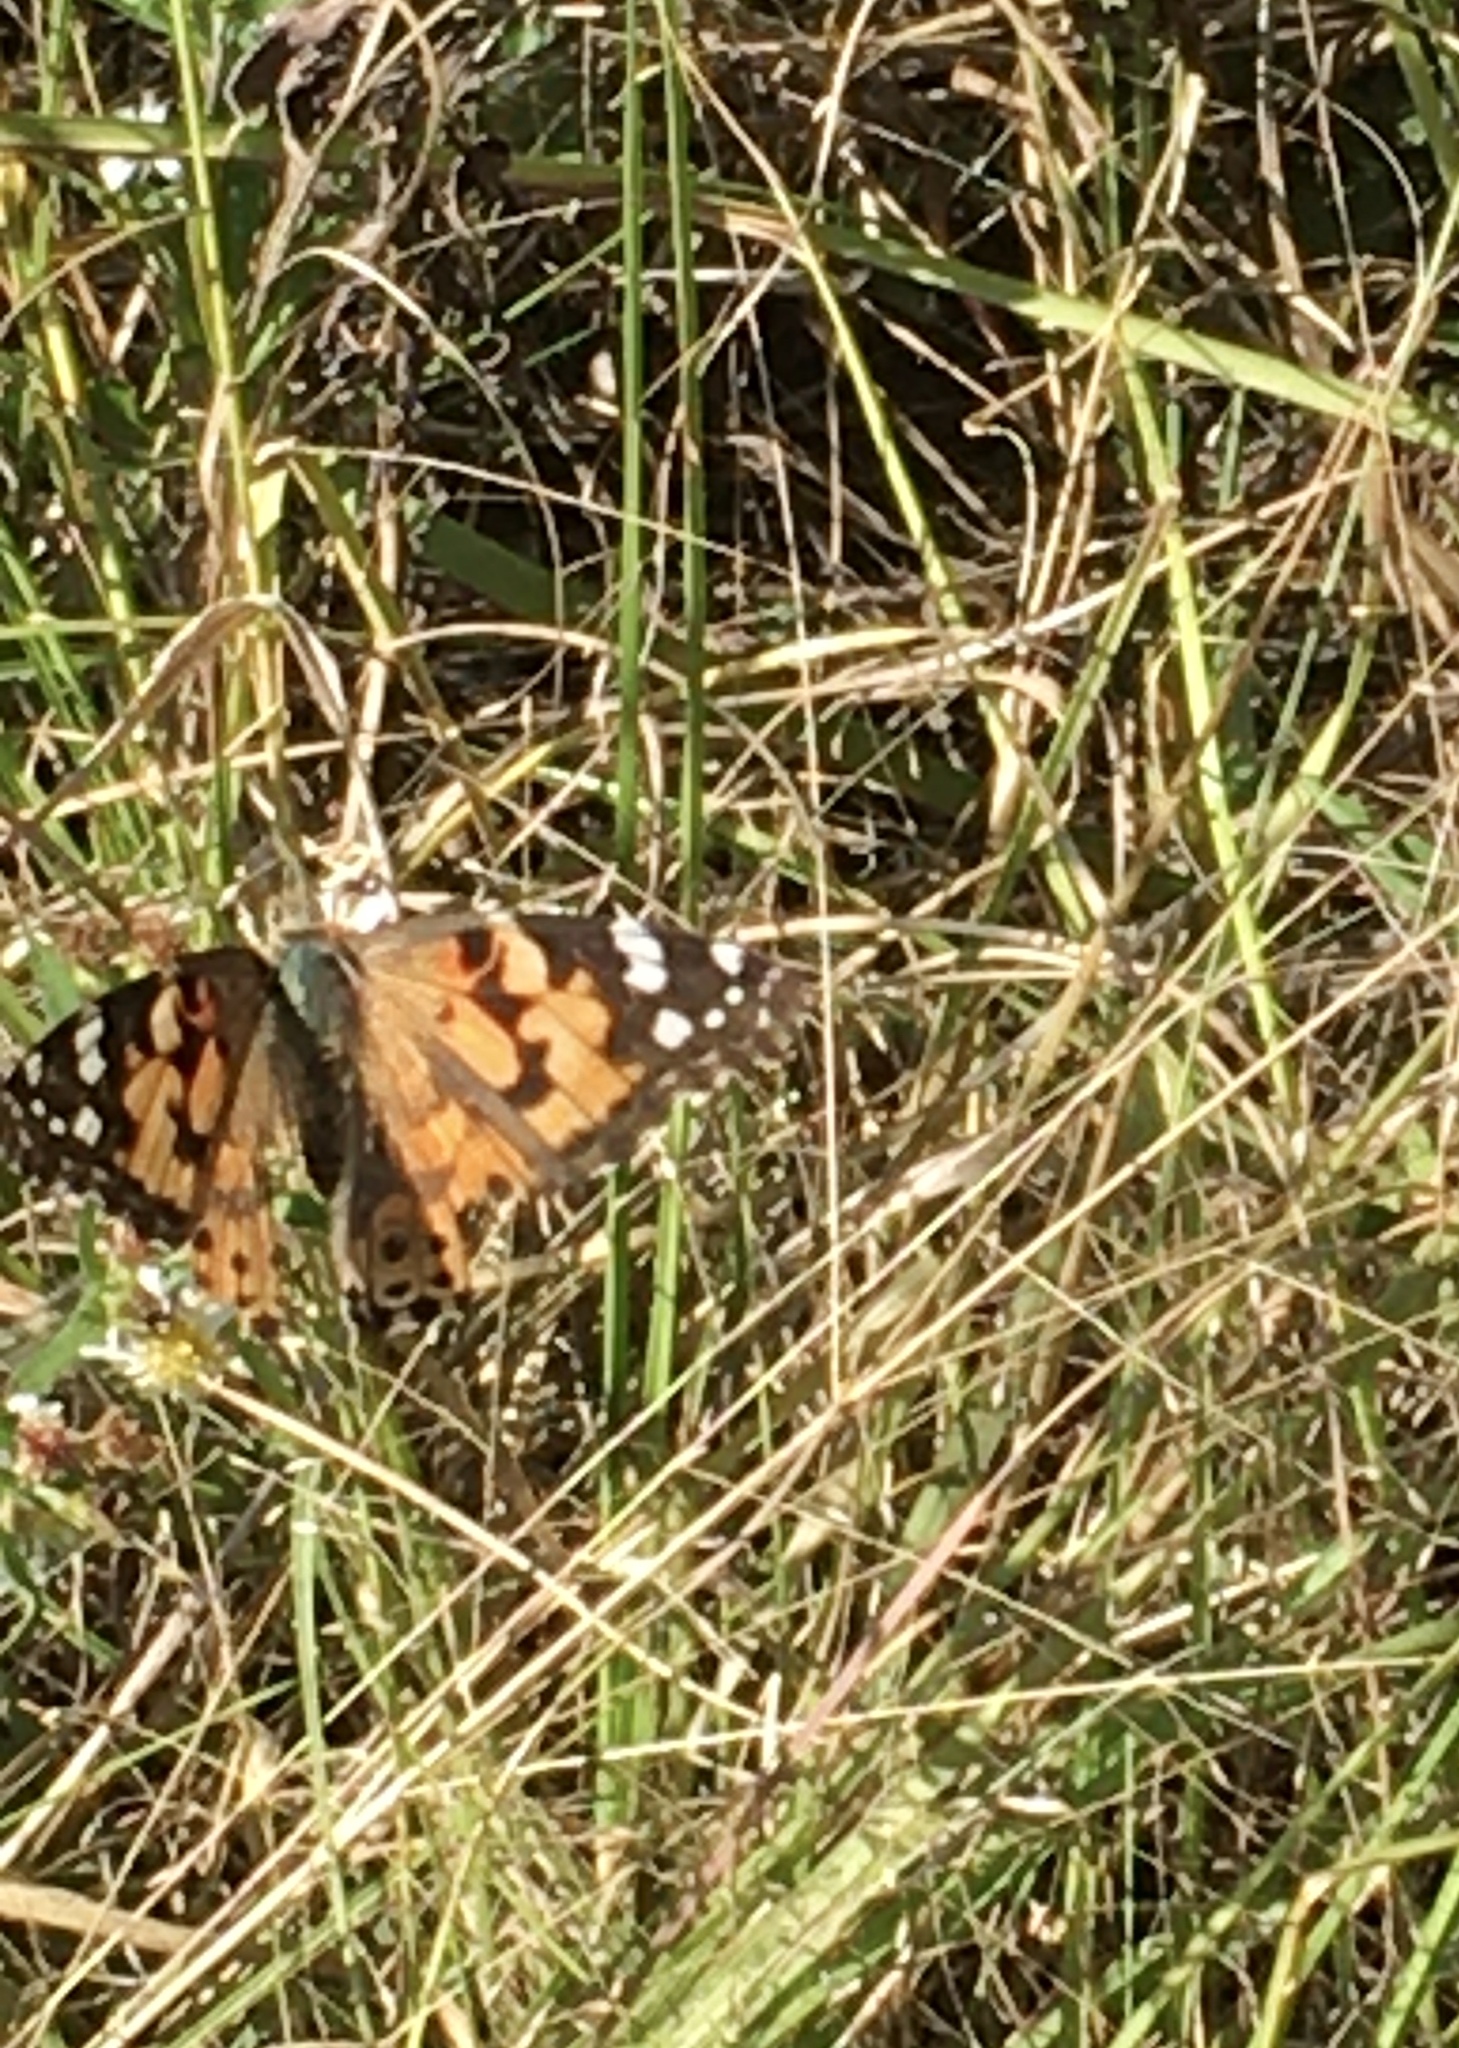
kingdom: Animalia
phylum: Arthropoda
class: Insecta
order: Lepidoptera
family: Nymphalidae
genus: Vanessa
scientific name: Vanessa cardui
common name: Painted lady
